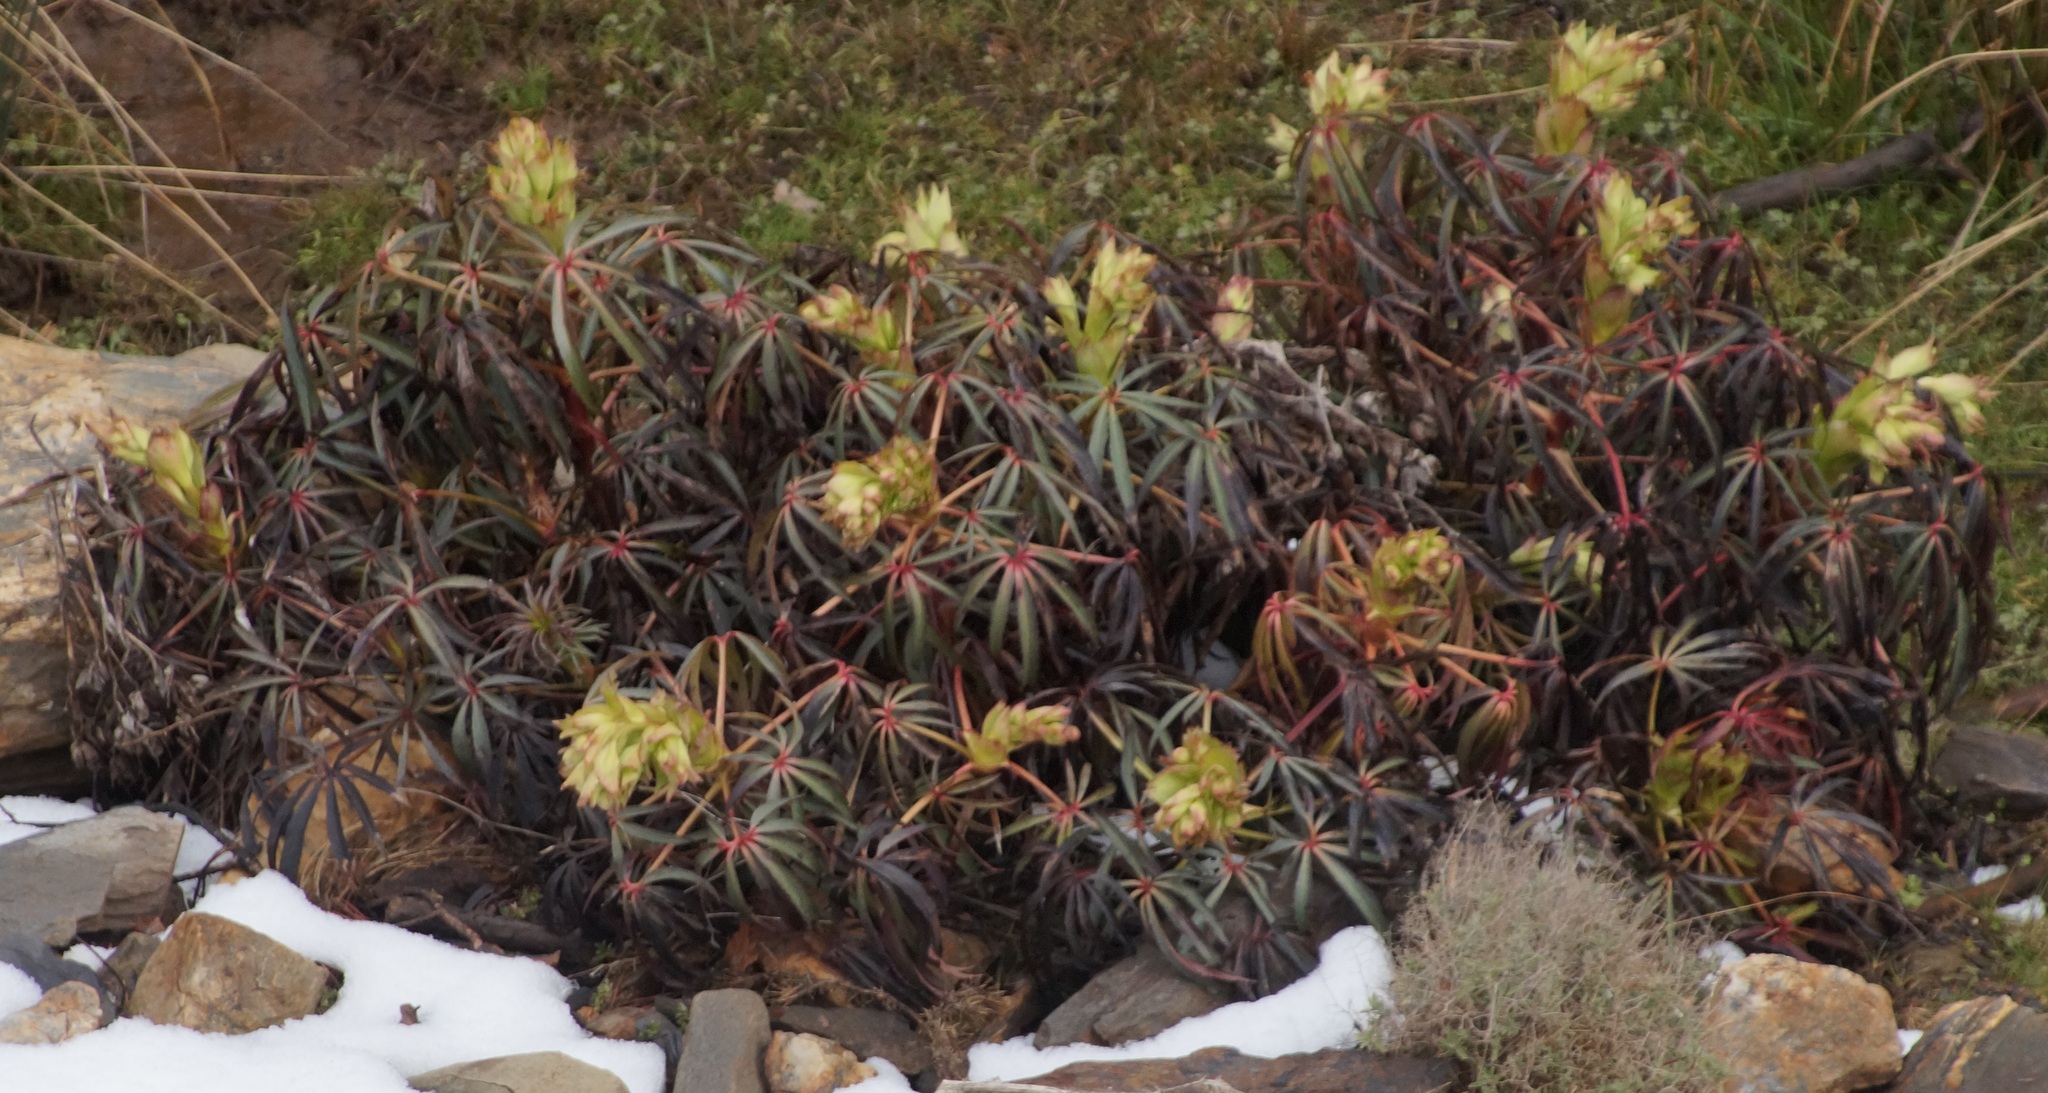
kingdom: Plantae
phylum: Tracheophyta
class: Magnoliopsida
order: Ranunculales
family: Ranunculaceae
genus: Helleborus
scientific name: Helleborus foetidus
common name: Stinking hellebore
